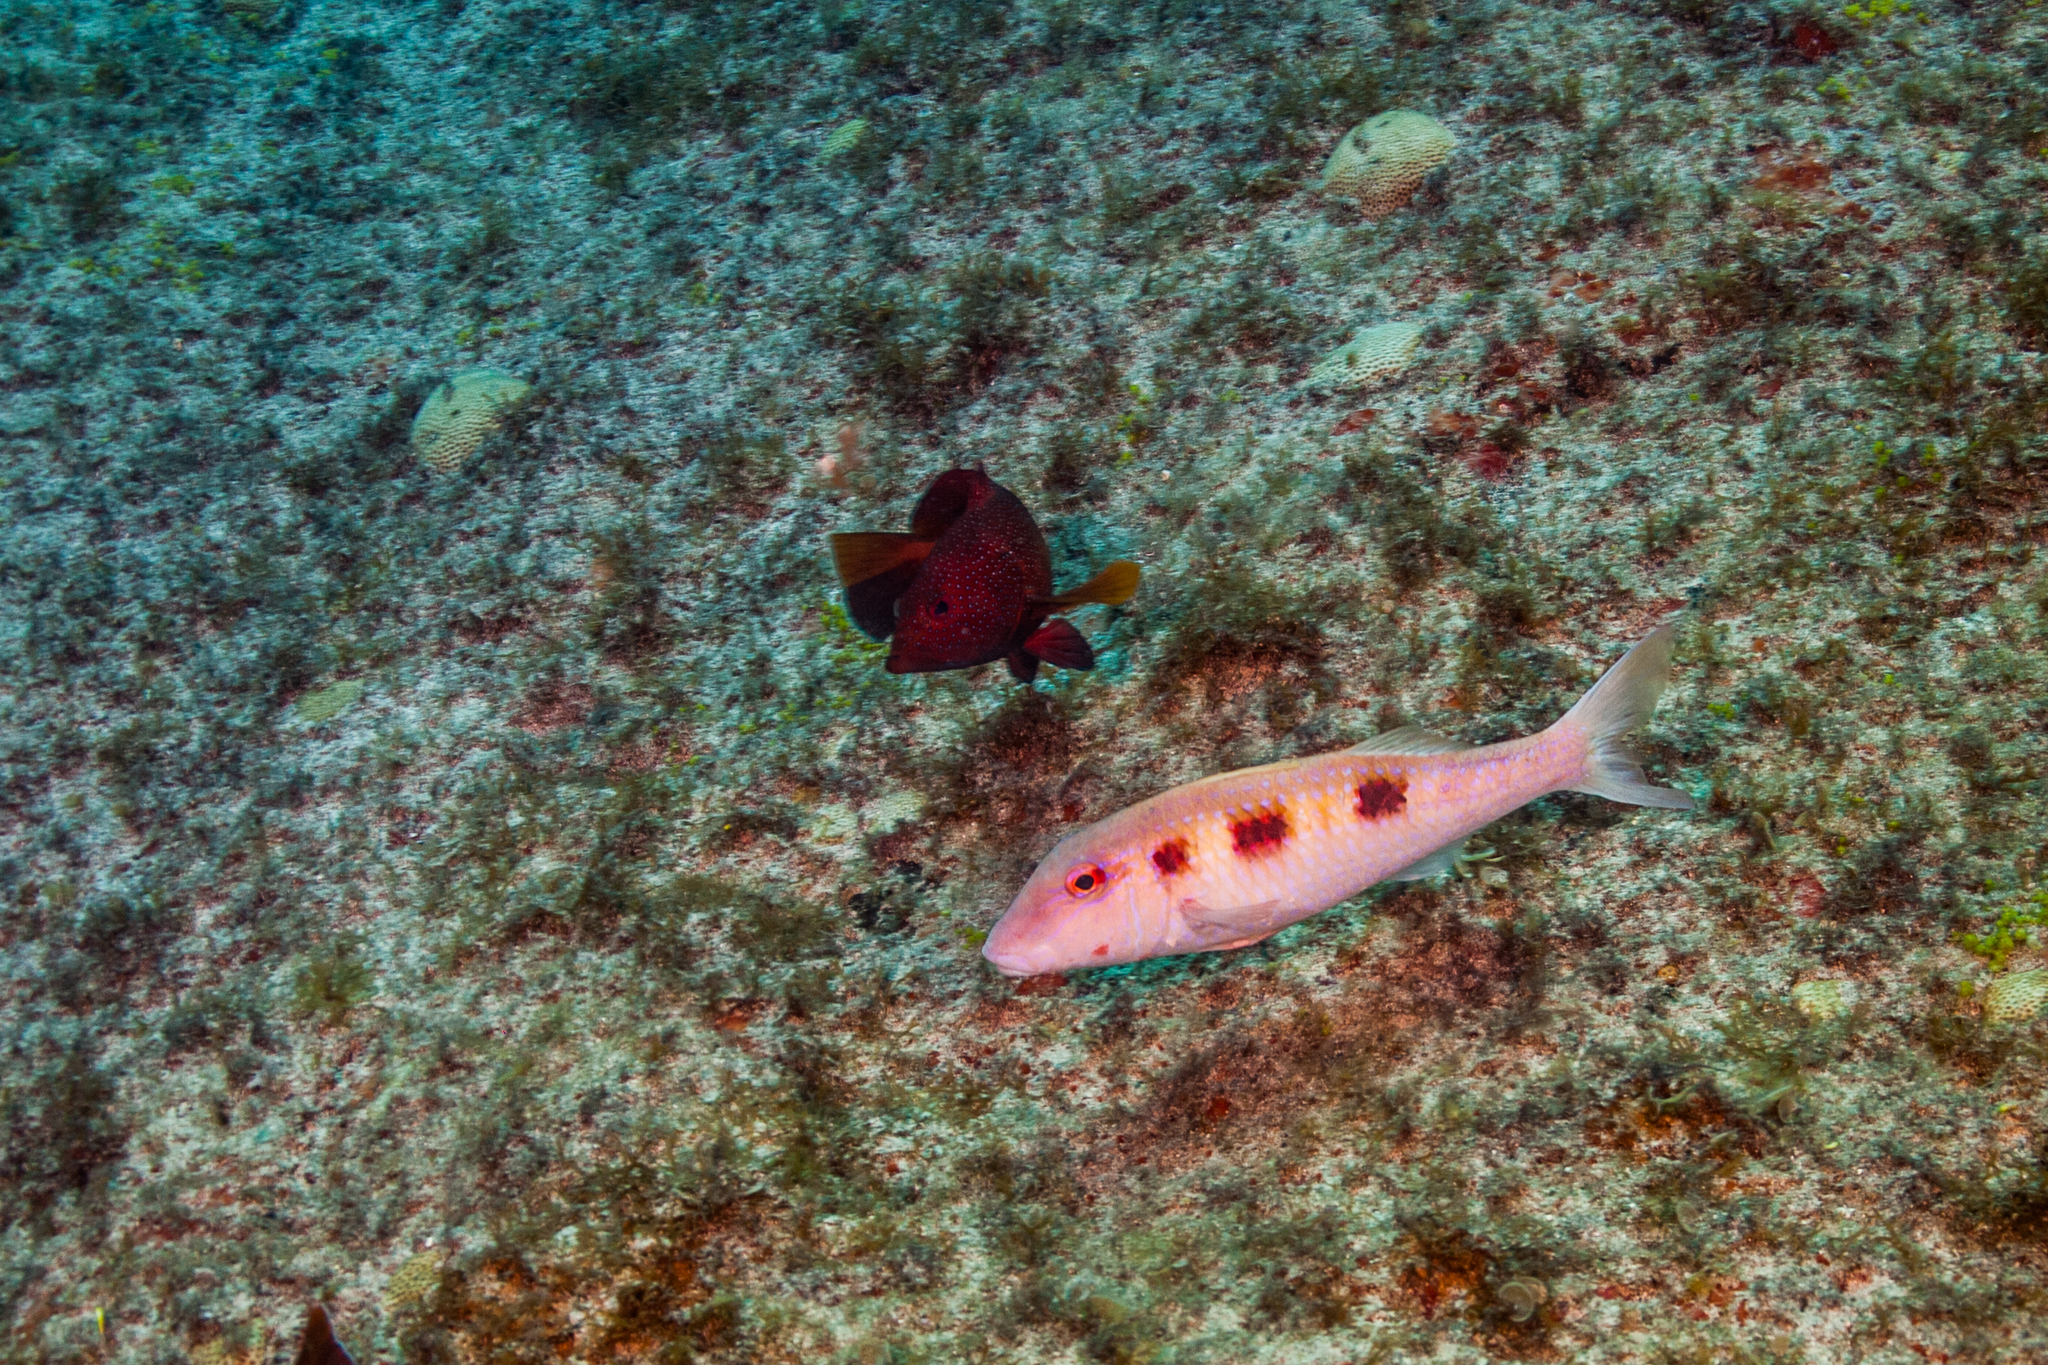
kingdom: Animalia
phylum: Chordata
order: Perciformes
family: Mullidae
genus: Pseudupeneus
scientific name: Pseudupeneus maculatus
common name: Spotted goatfish
